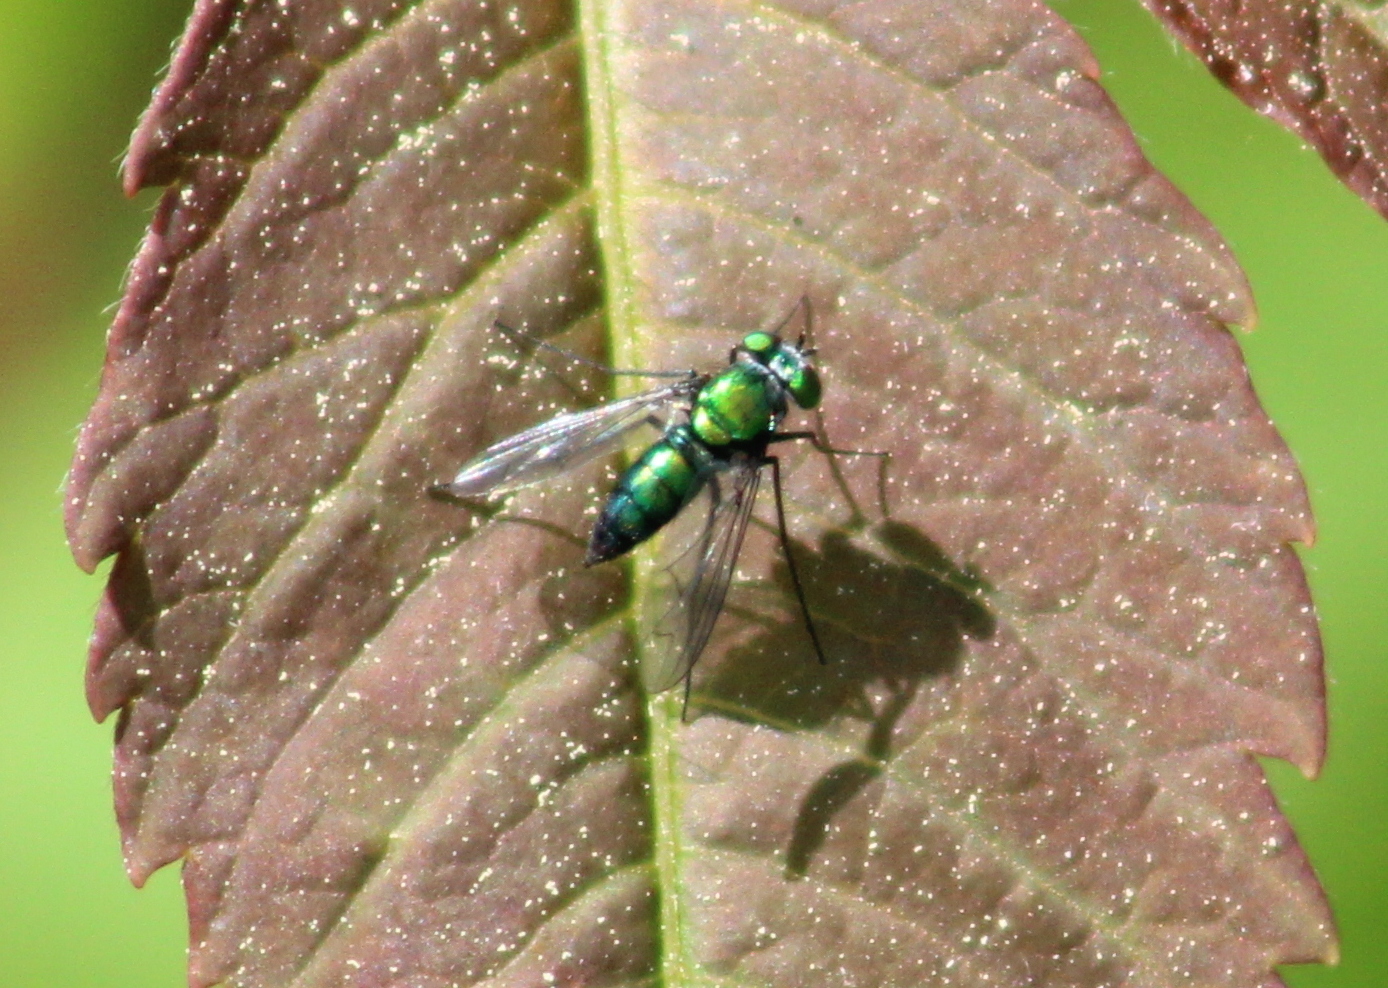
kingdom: Animalia
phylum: Arthropoda
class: Insecta
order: Diptera
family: Dolichopodidae
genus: Condylostylus
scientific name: Condylostylus patibulatus
